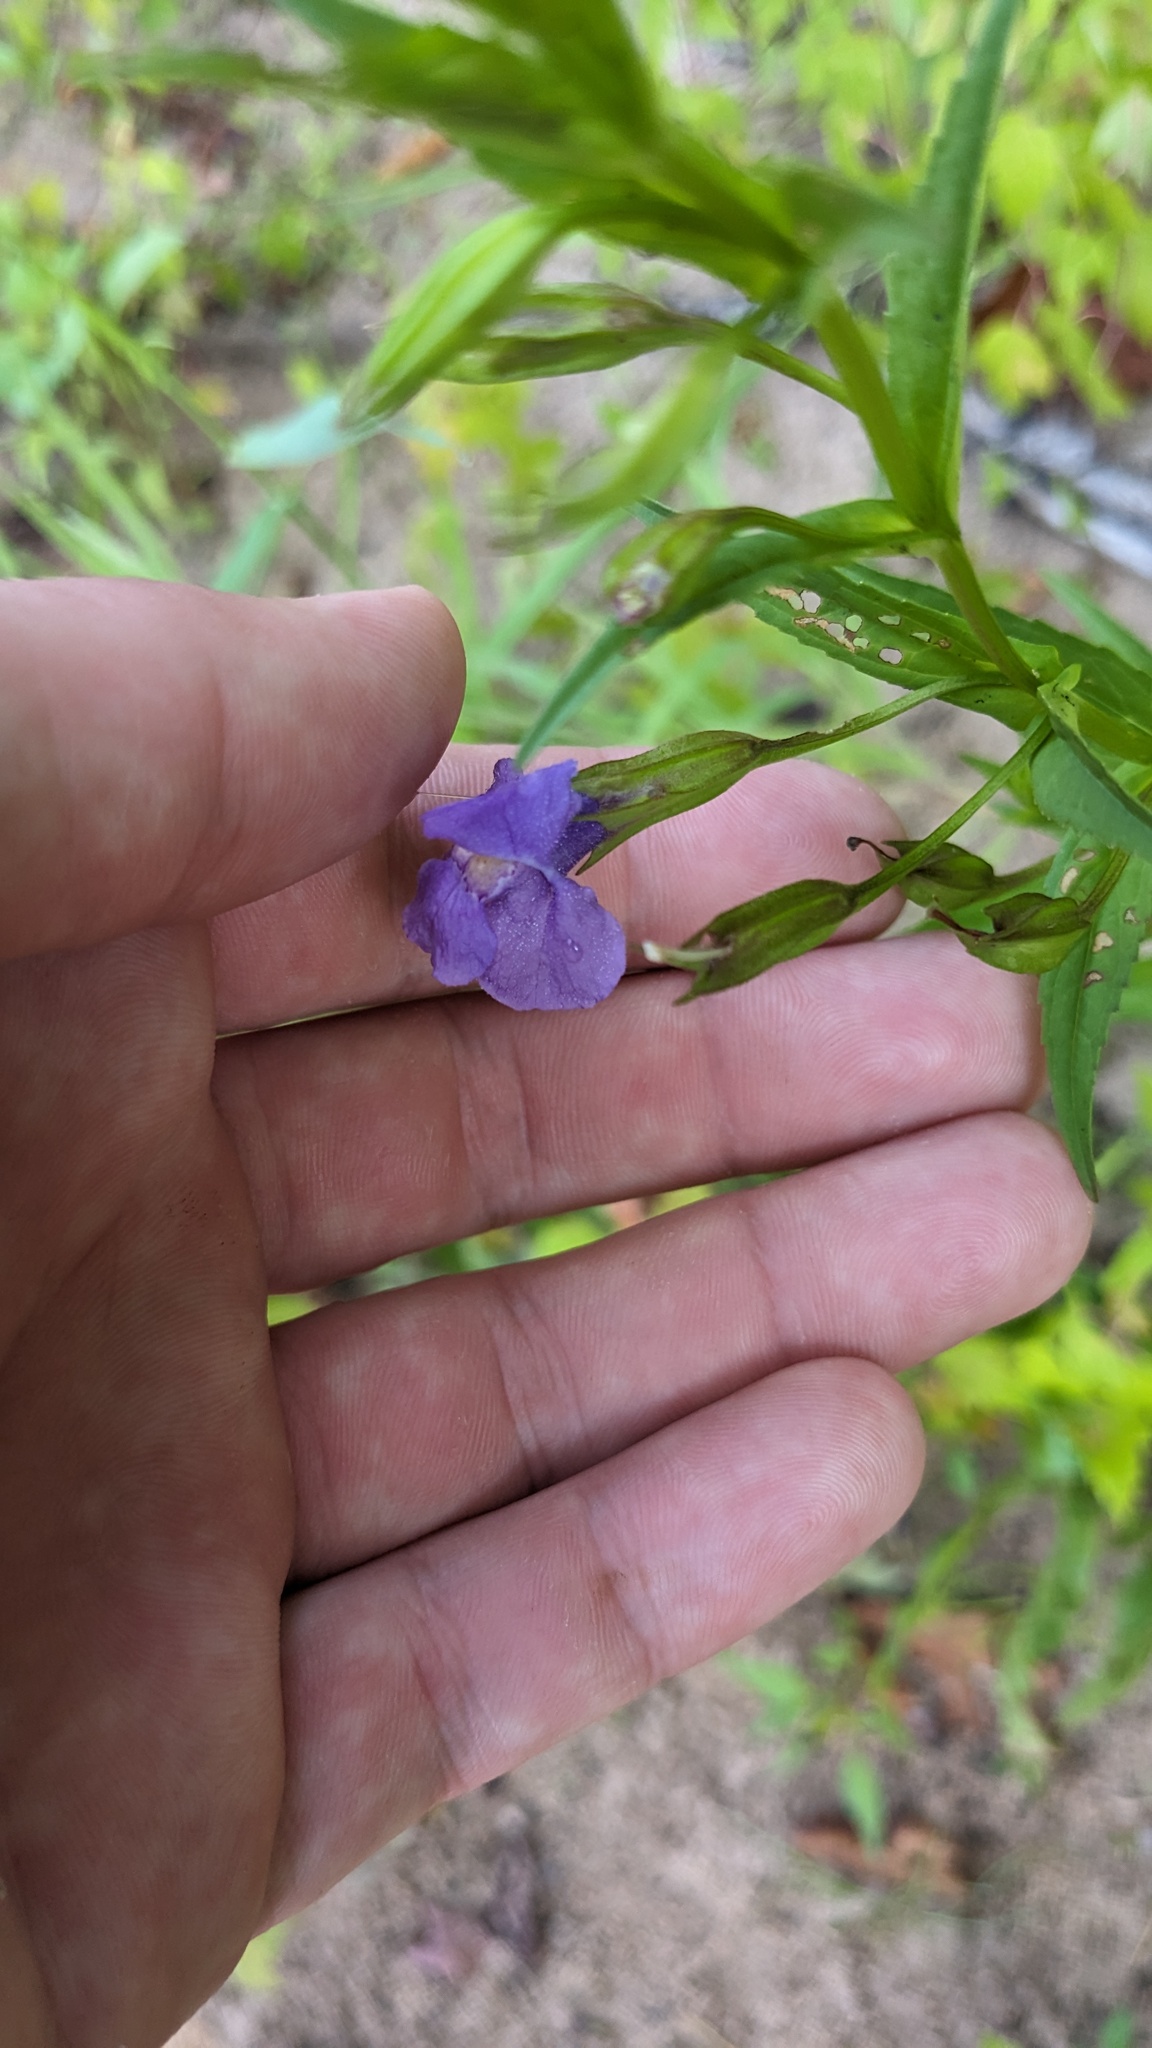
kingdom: Plantae
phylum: Tracheophyta
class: Magnoliopsida
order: Lamiales
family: Phrymaceae
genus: Mimulus
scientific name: Mimulus ringens
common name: Allegheny monkeyflower
